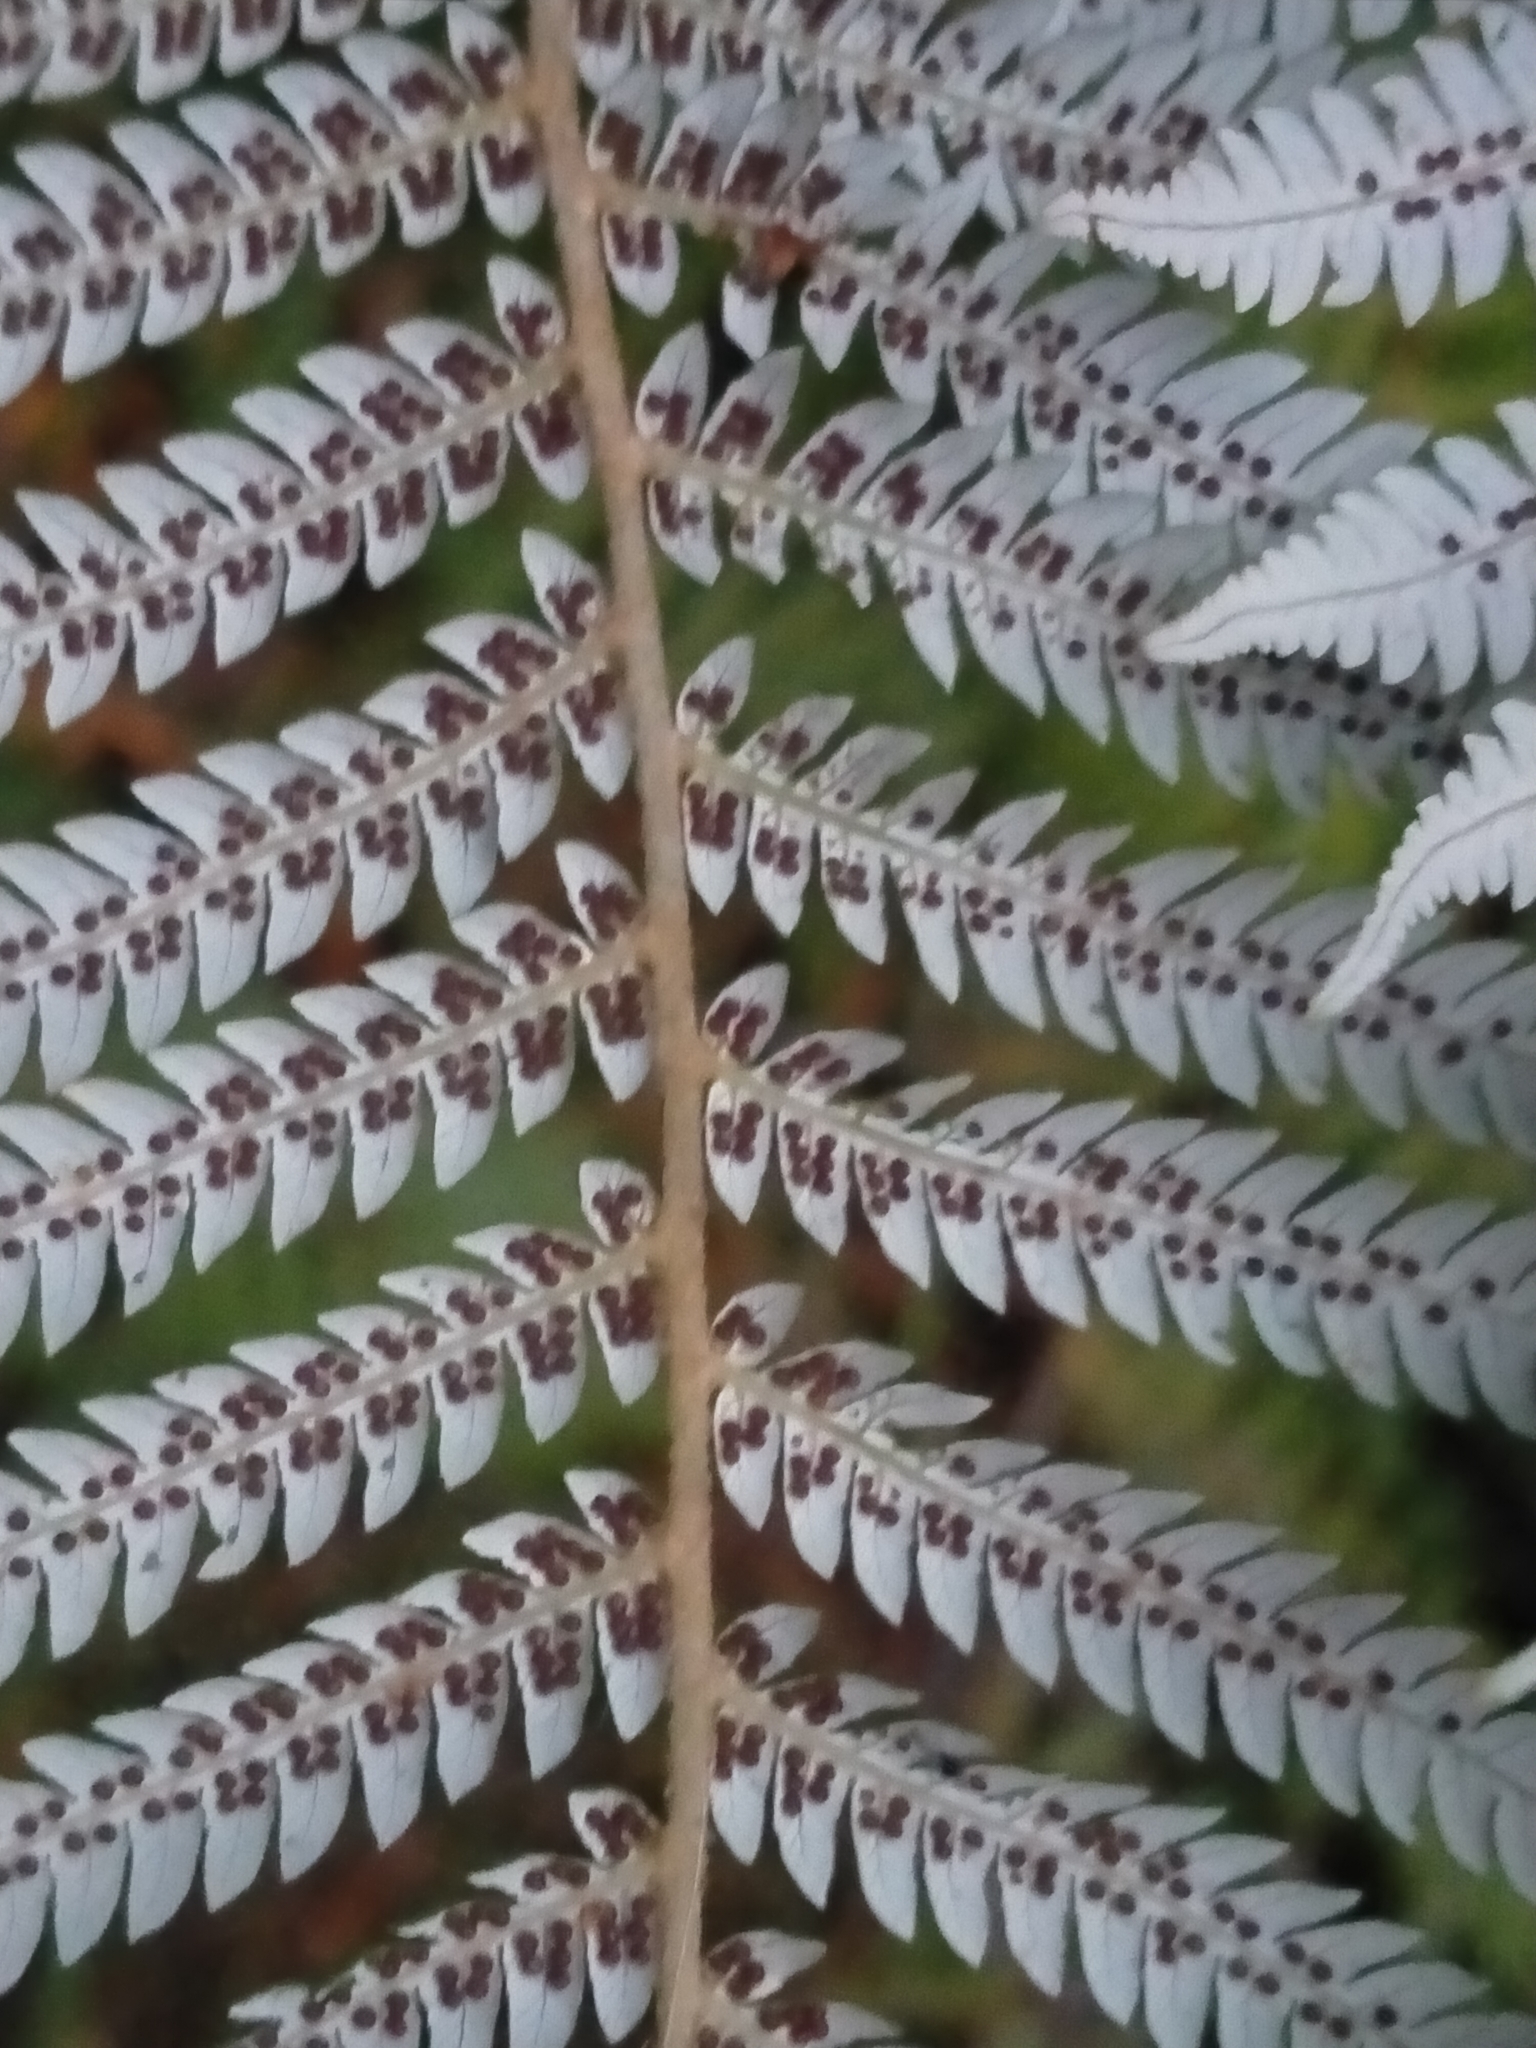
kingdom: Plantae
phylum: Tracheophyta
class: Polypodiopsida
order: Cyatheales
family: Cyatheaceae
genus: Alsophila
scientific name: Alsophila dealbata
